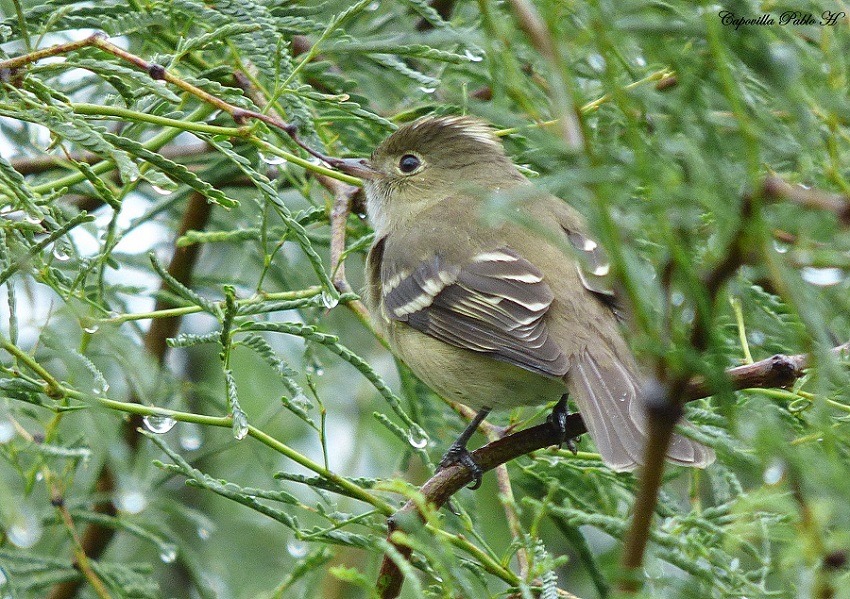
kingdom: Animalia
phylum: Chordata
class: Aves
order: Passeriformes
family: Tyrannidae
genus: Elaenia
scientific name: Elaenia albiceps
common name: White-crested elaenia
